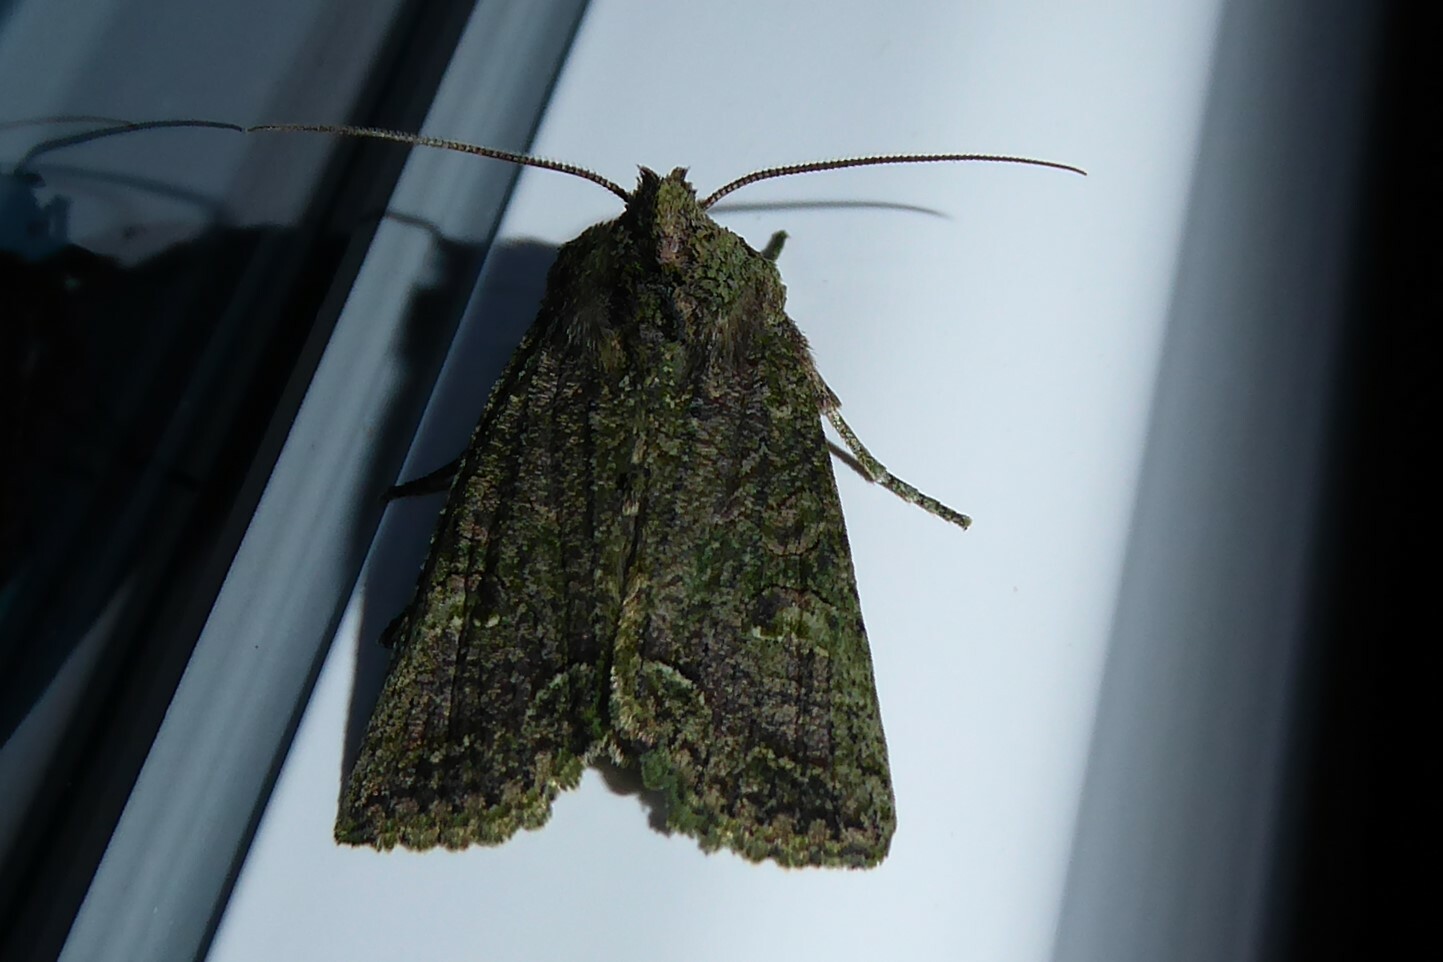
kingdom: Animalia
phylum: Arthropoda
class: Insecta
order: Lepidoptera
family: Noctuidae
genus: Meterana
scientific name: Meterana levis
